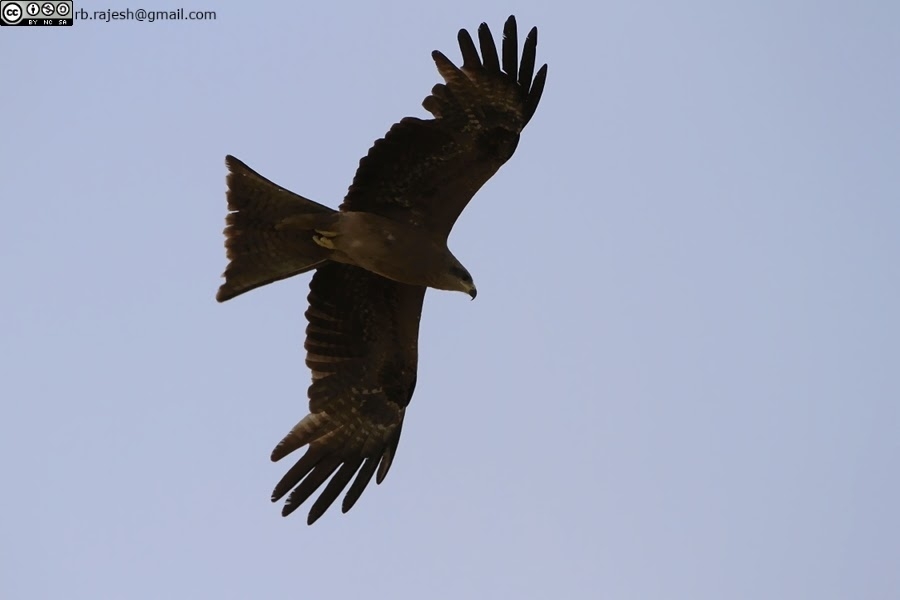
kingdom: Animalia
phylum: Chordata
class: Aves
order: Accipitriformes
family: Accipitridae
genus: Milvus
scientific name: Milvus migrans
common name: Black kite
